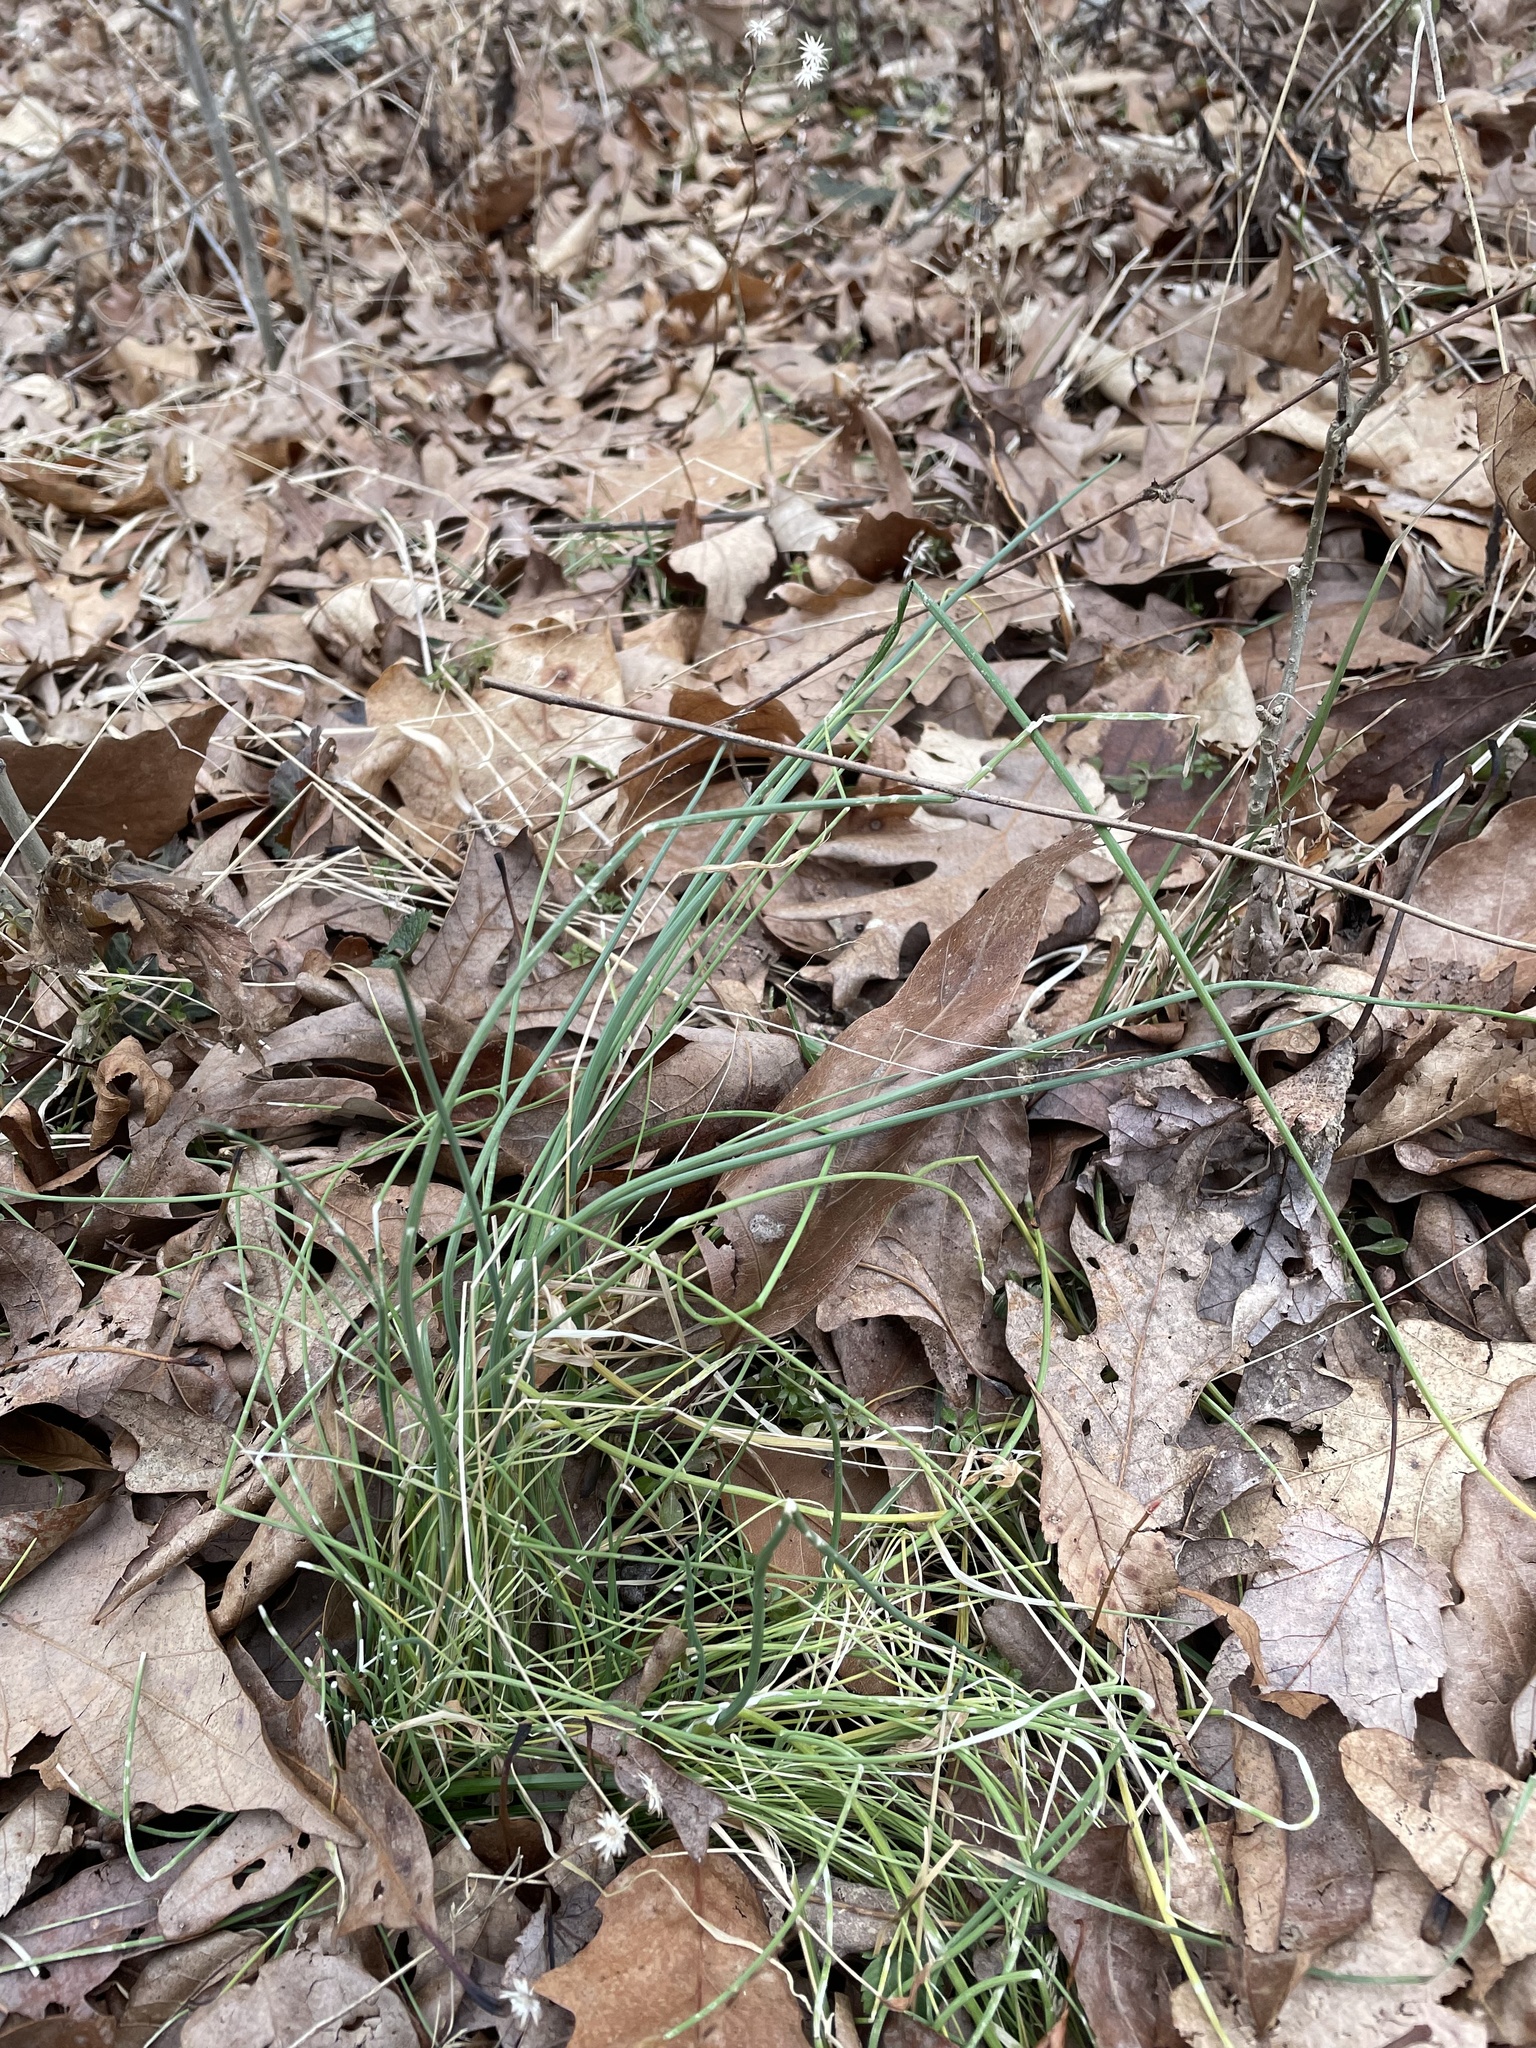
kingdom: Plantae
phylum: Tracheophyta
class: Liliopsida
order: Asparagales
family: Amaryllidaceae
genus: Allium
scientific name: Allium vineale
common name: Crow garlic
